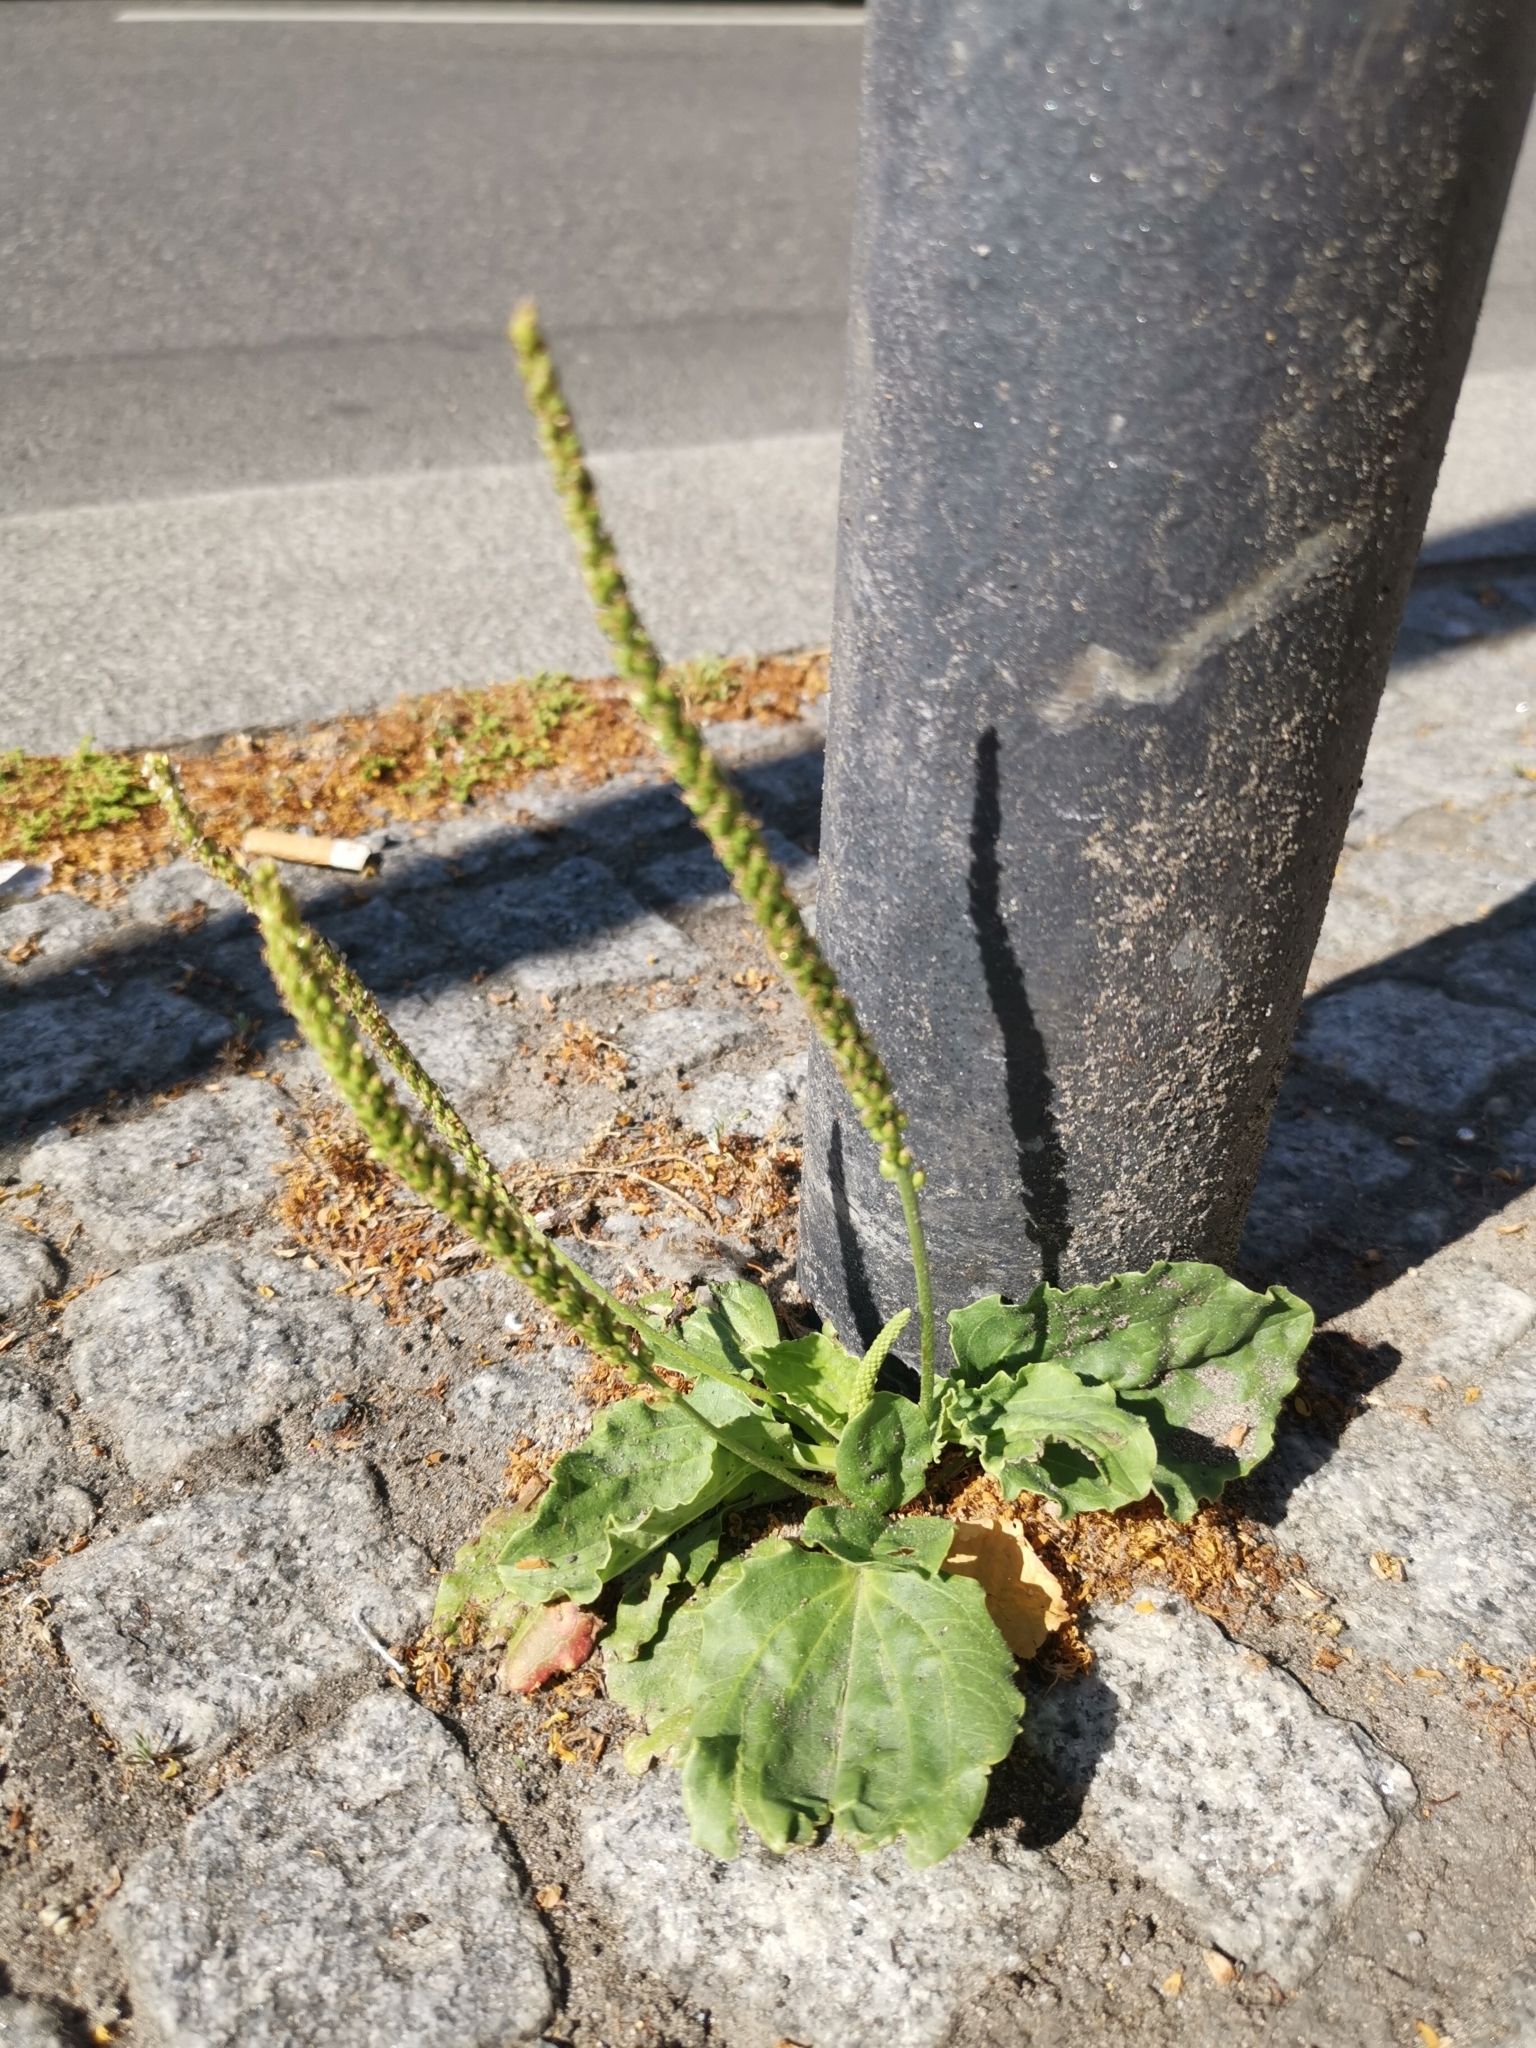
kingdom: Plantae
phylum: Tracheophyta
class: Magnoliopsida
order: Lamiales
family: Plantaginaceae
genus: Plantago
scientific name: Plantago major
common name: Common plantain
